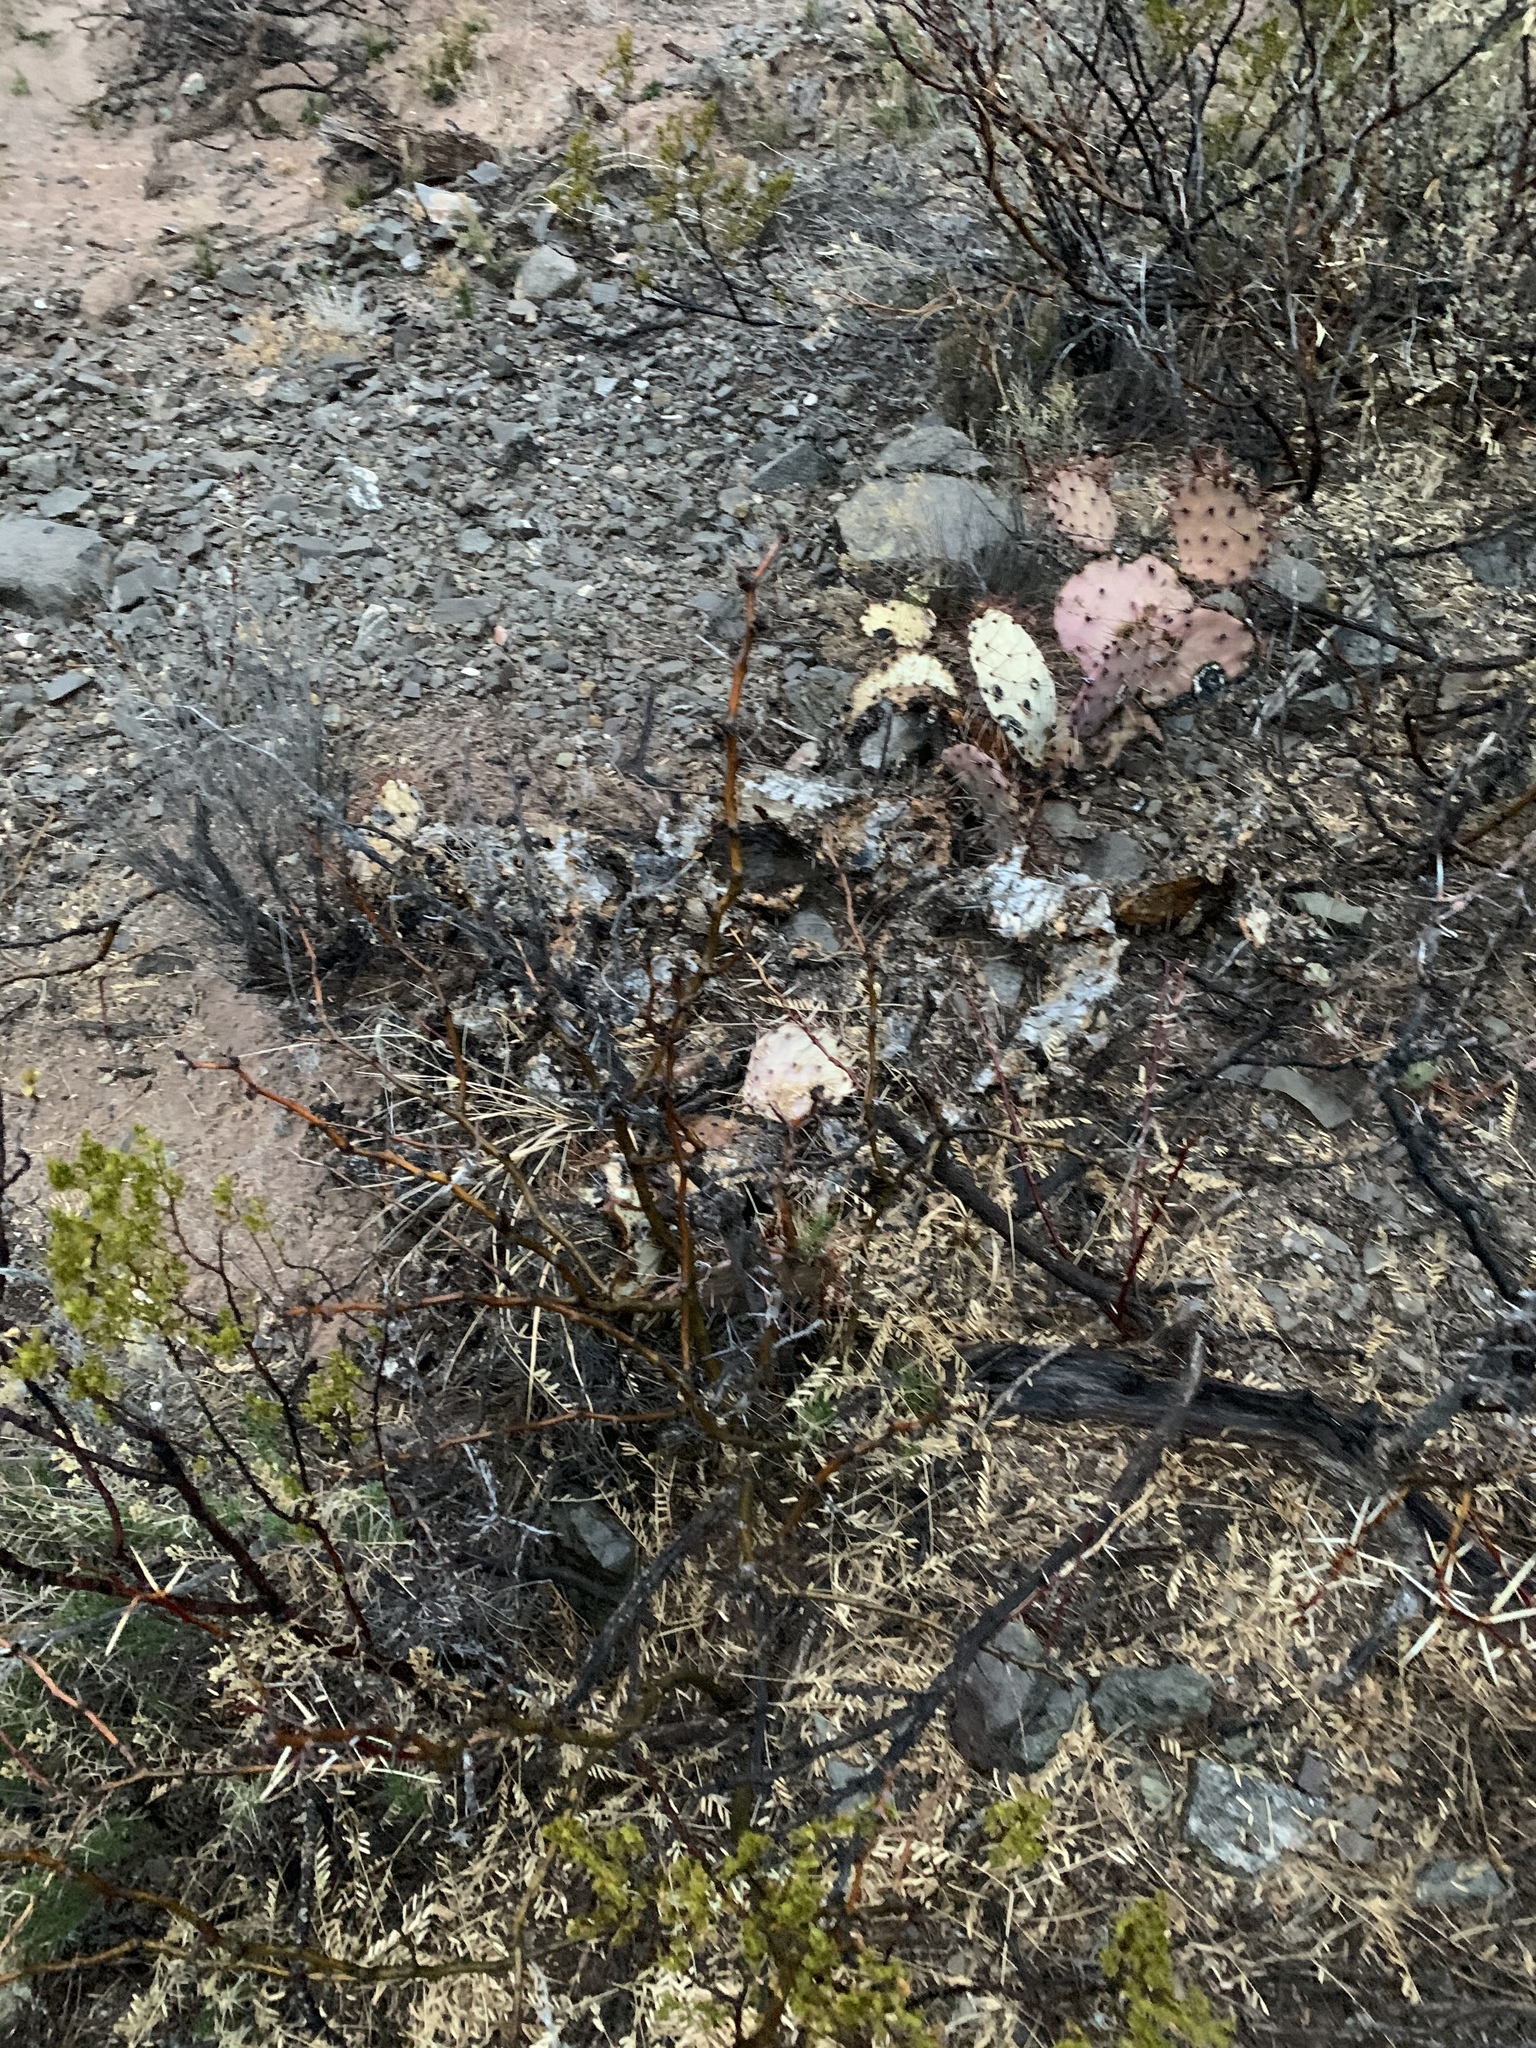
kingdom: Plantae
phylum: Tracheophyta
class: Magnoliopsida
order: Fabales
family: Fabaceae
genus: Prosopis
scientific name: Prosopis glandulosa
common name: Honey mesquite
